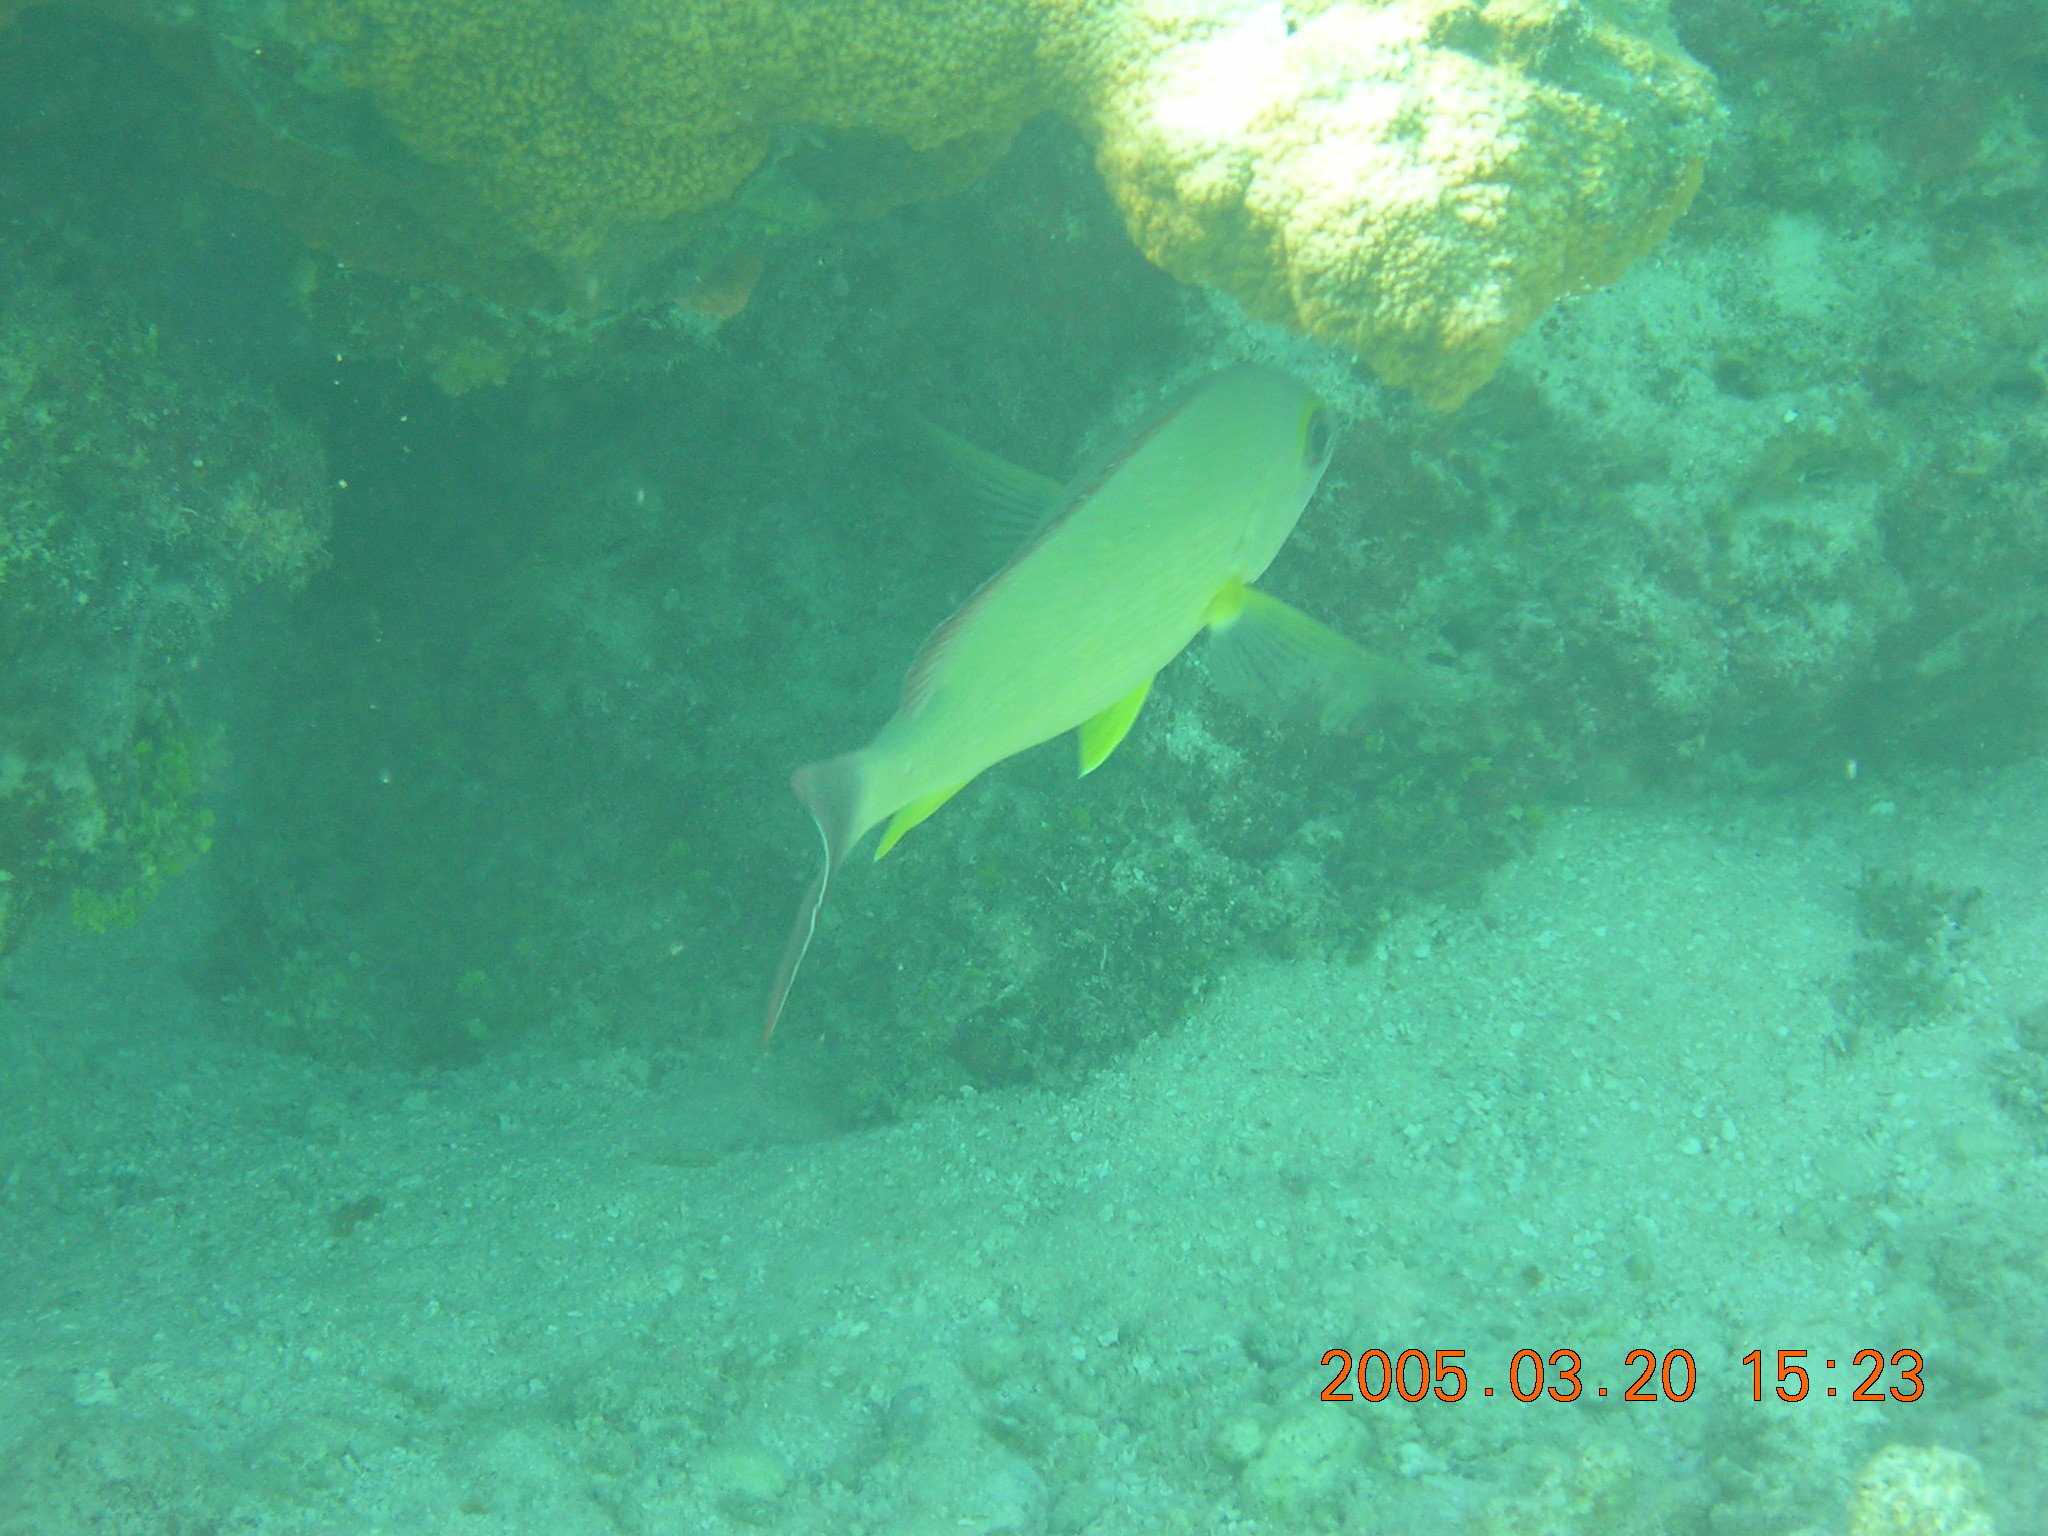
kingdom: Animalia
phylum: Chordata
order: Perciformes
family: Lutjanidae
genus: Lutjanus
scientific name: Lutjanus fulvus
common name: Blacktail snapper
